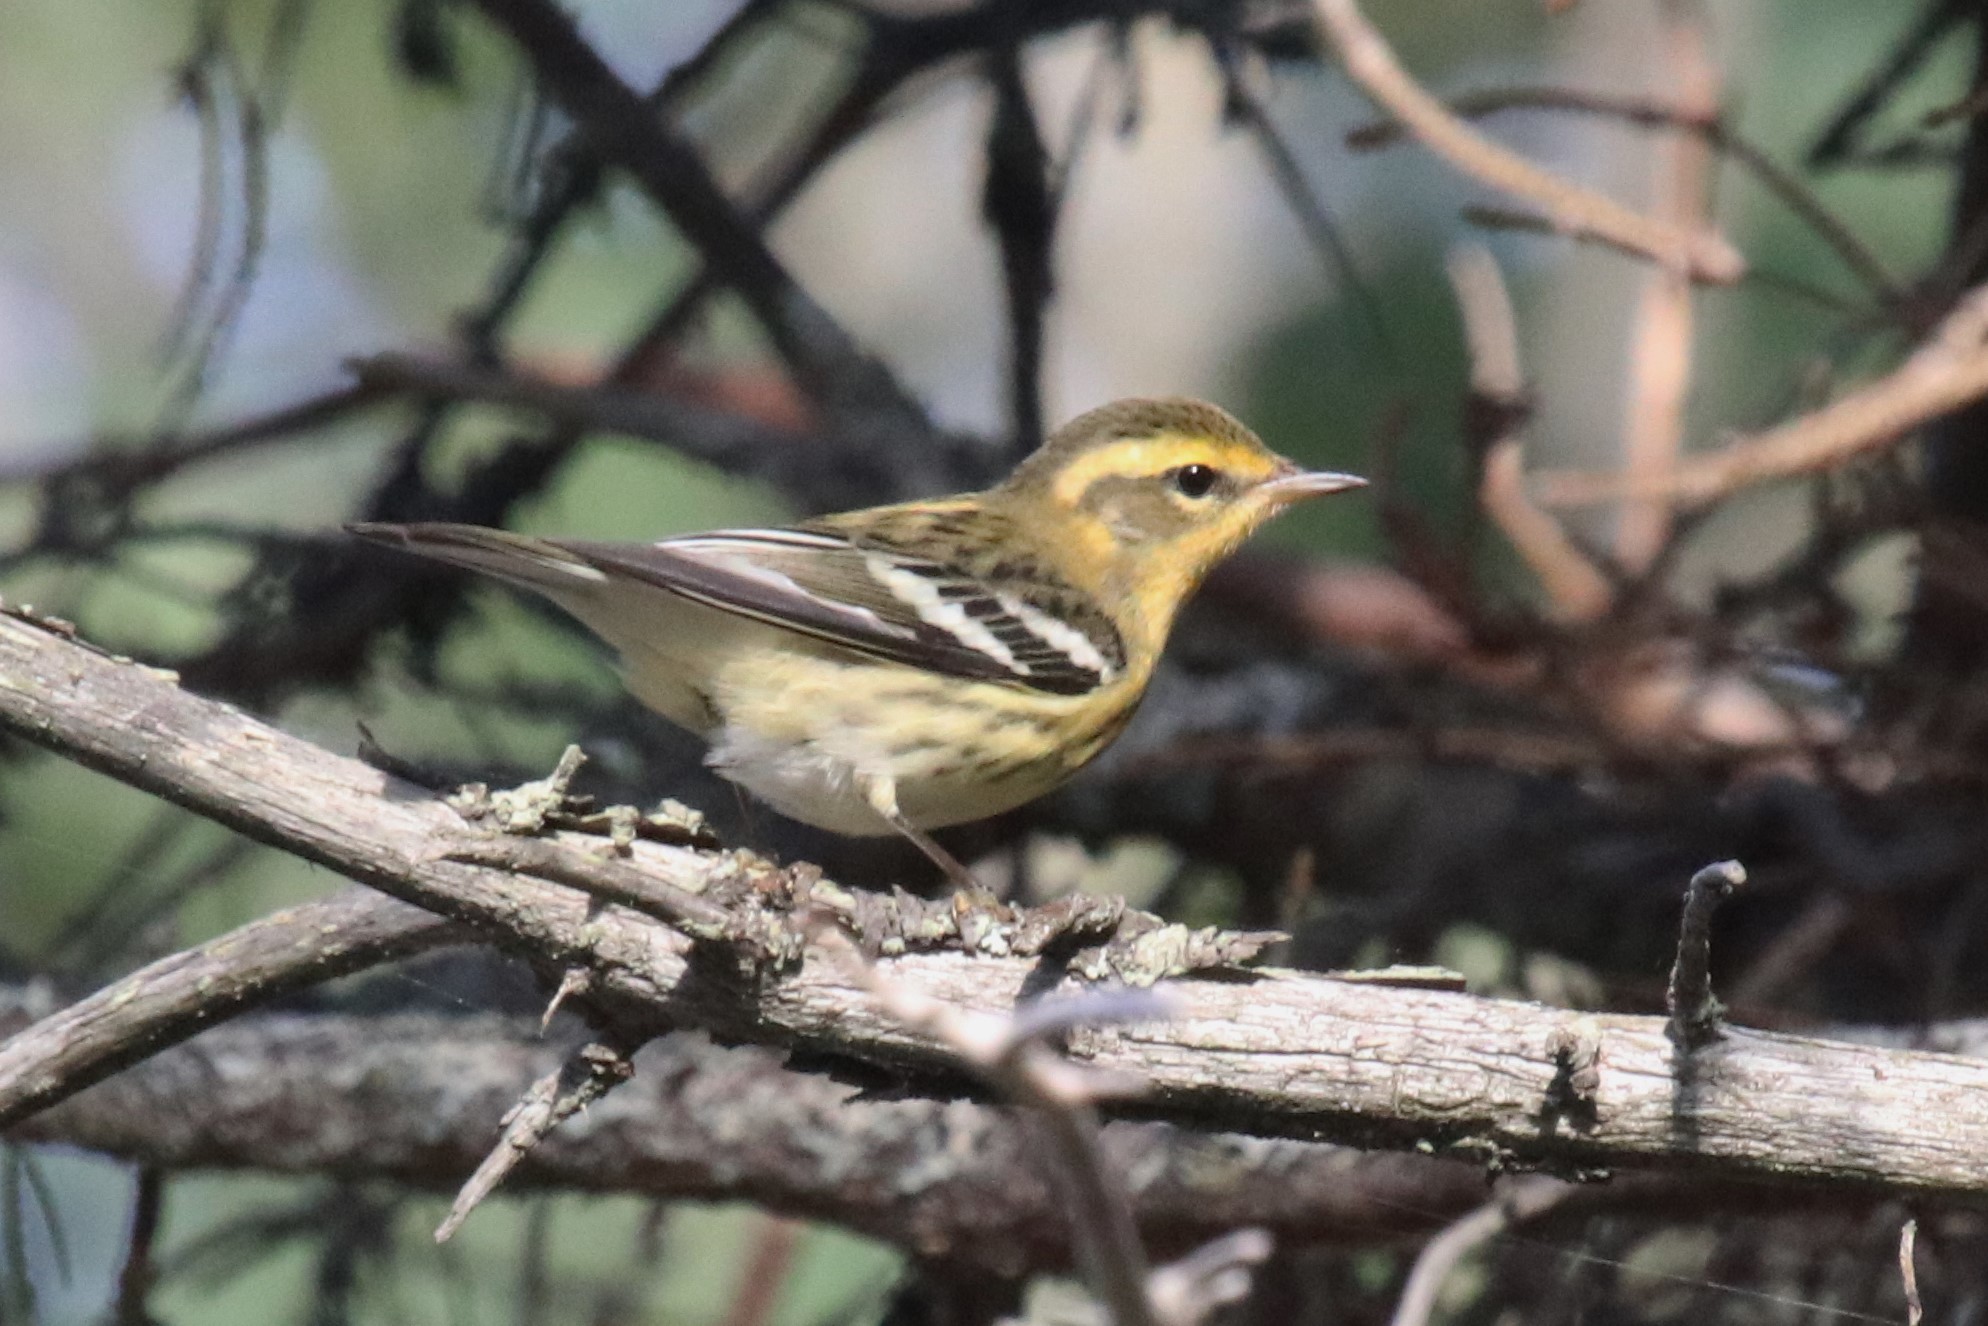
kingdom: Animalia
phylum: Chordata
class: Aves
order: Passeriformes
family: Parulidae
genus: Setophaga
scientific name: Setophaga fusca
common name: Blackburnian warbler
